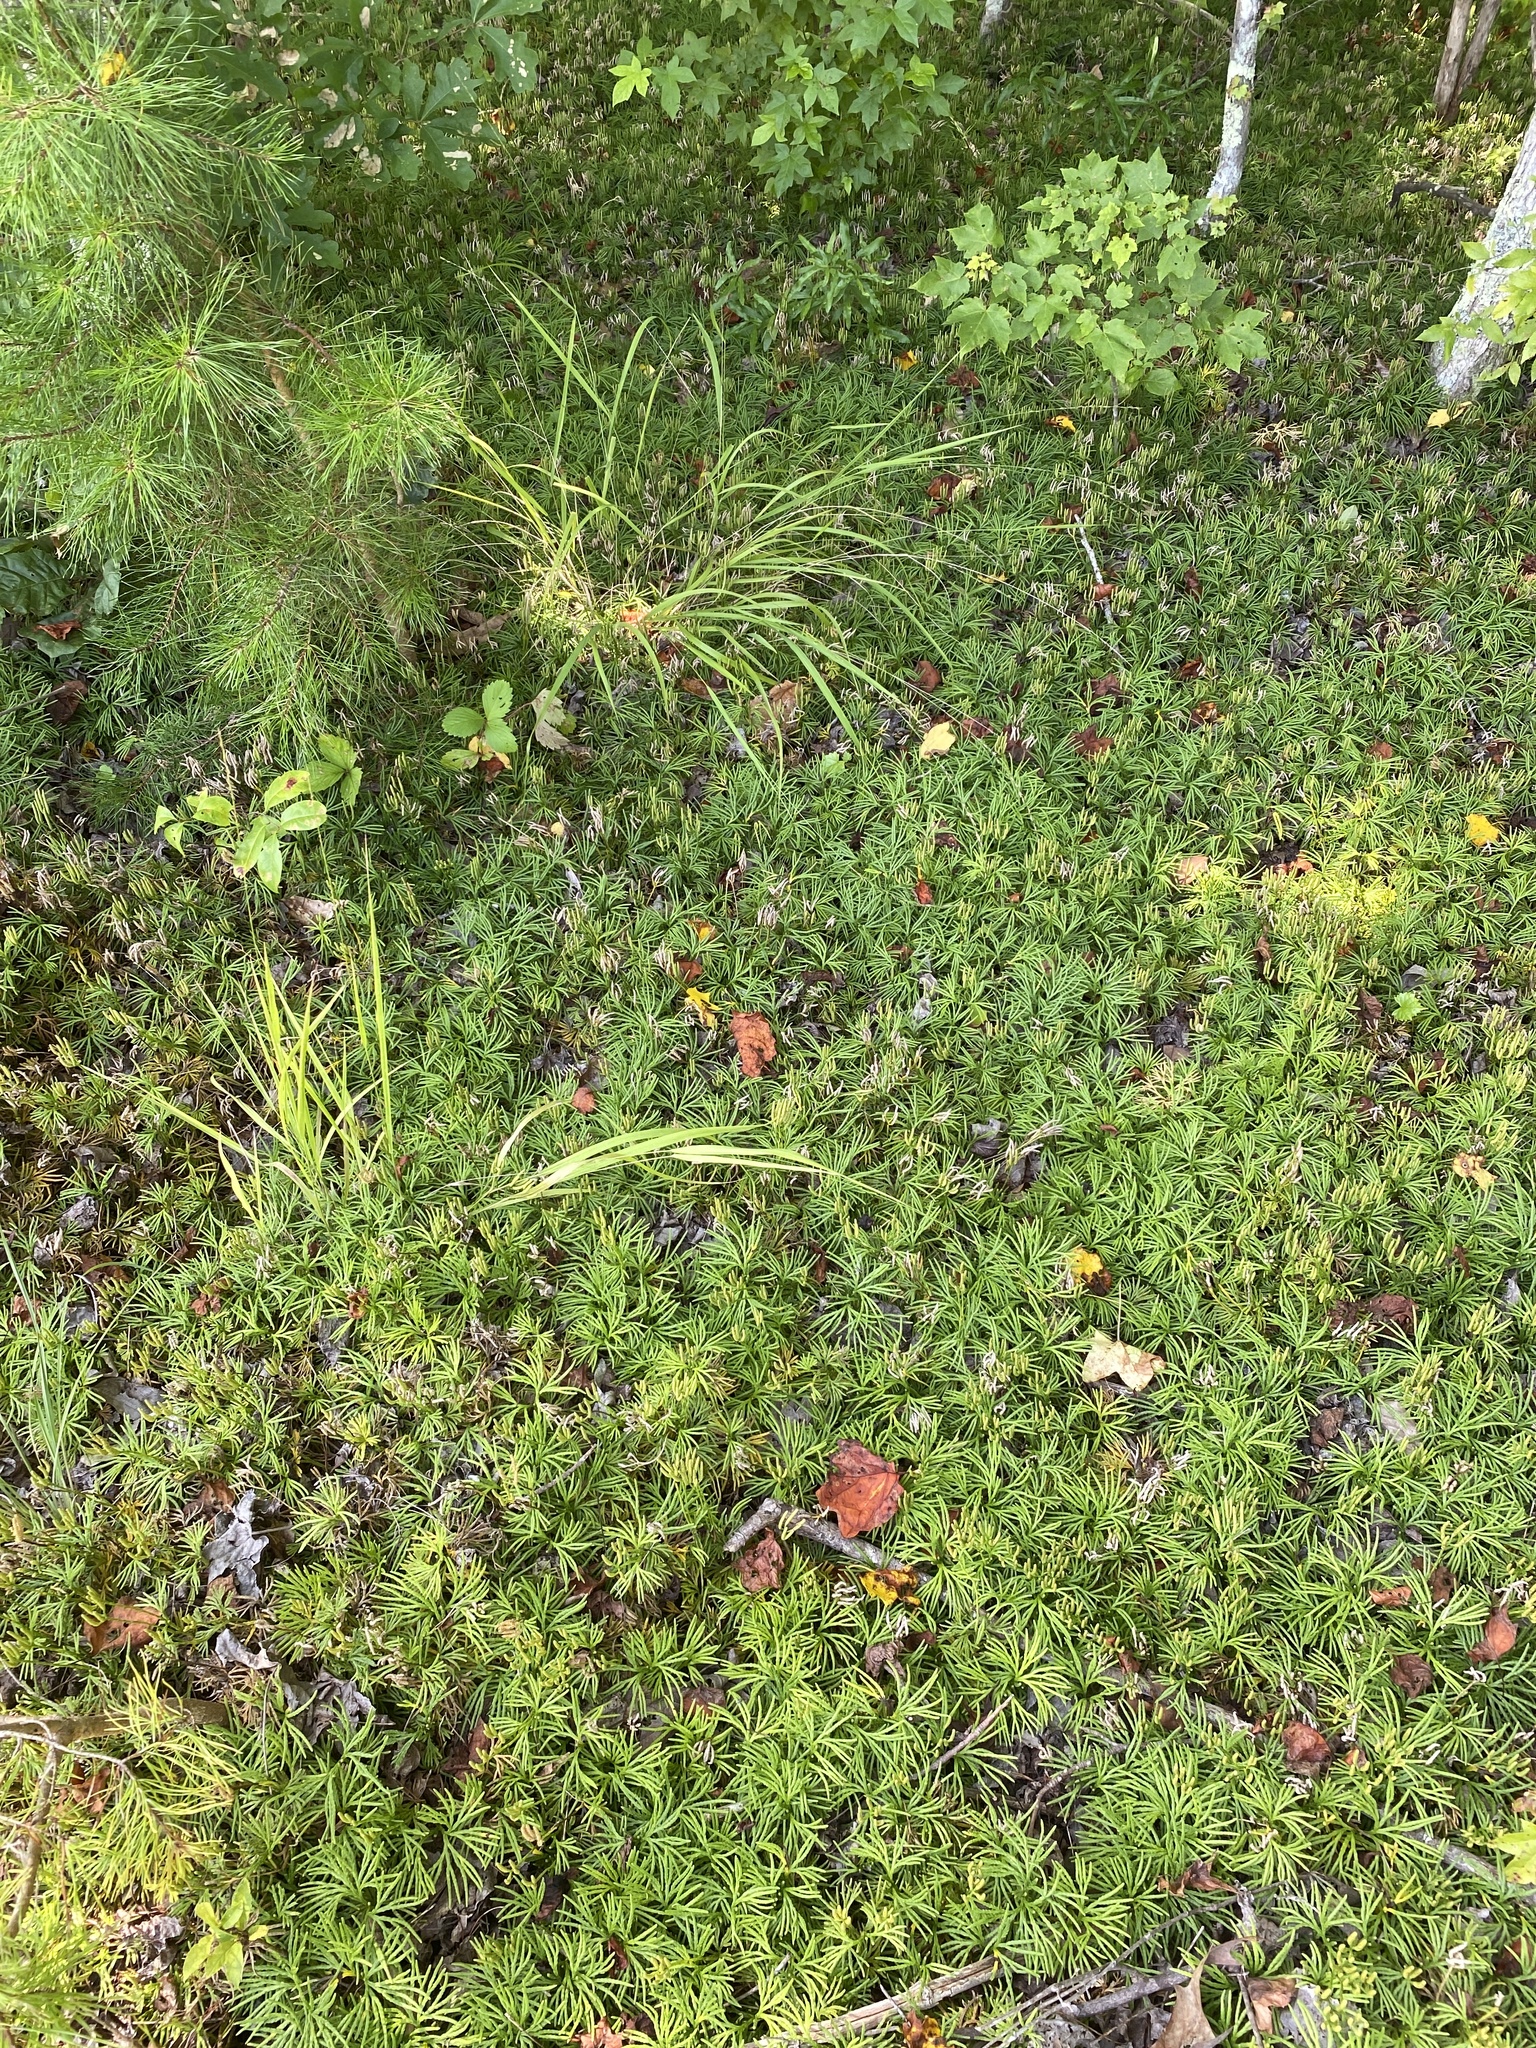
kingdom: Plantae
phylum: Tracheophyta
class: Lycopodiopsida
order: Lycopodiales
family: Lycopodiaceae
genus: Diphasiastrum
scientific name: Diphasiastrum digitatum
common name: Southern running-pine
